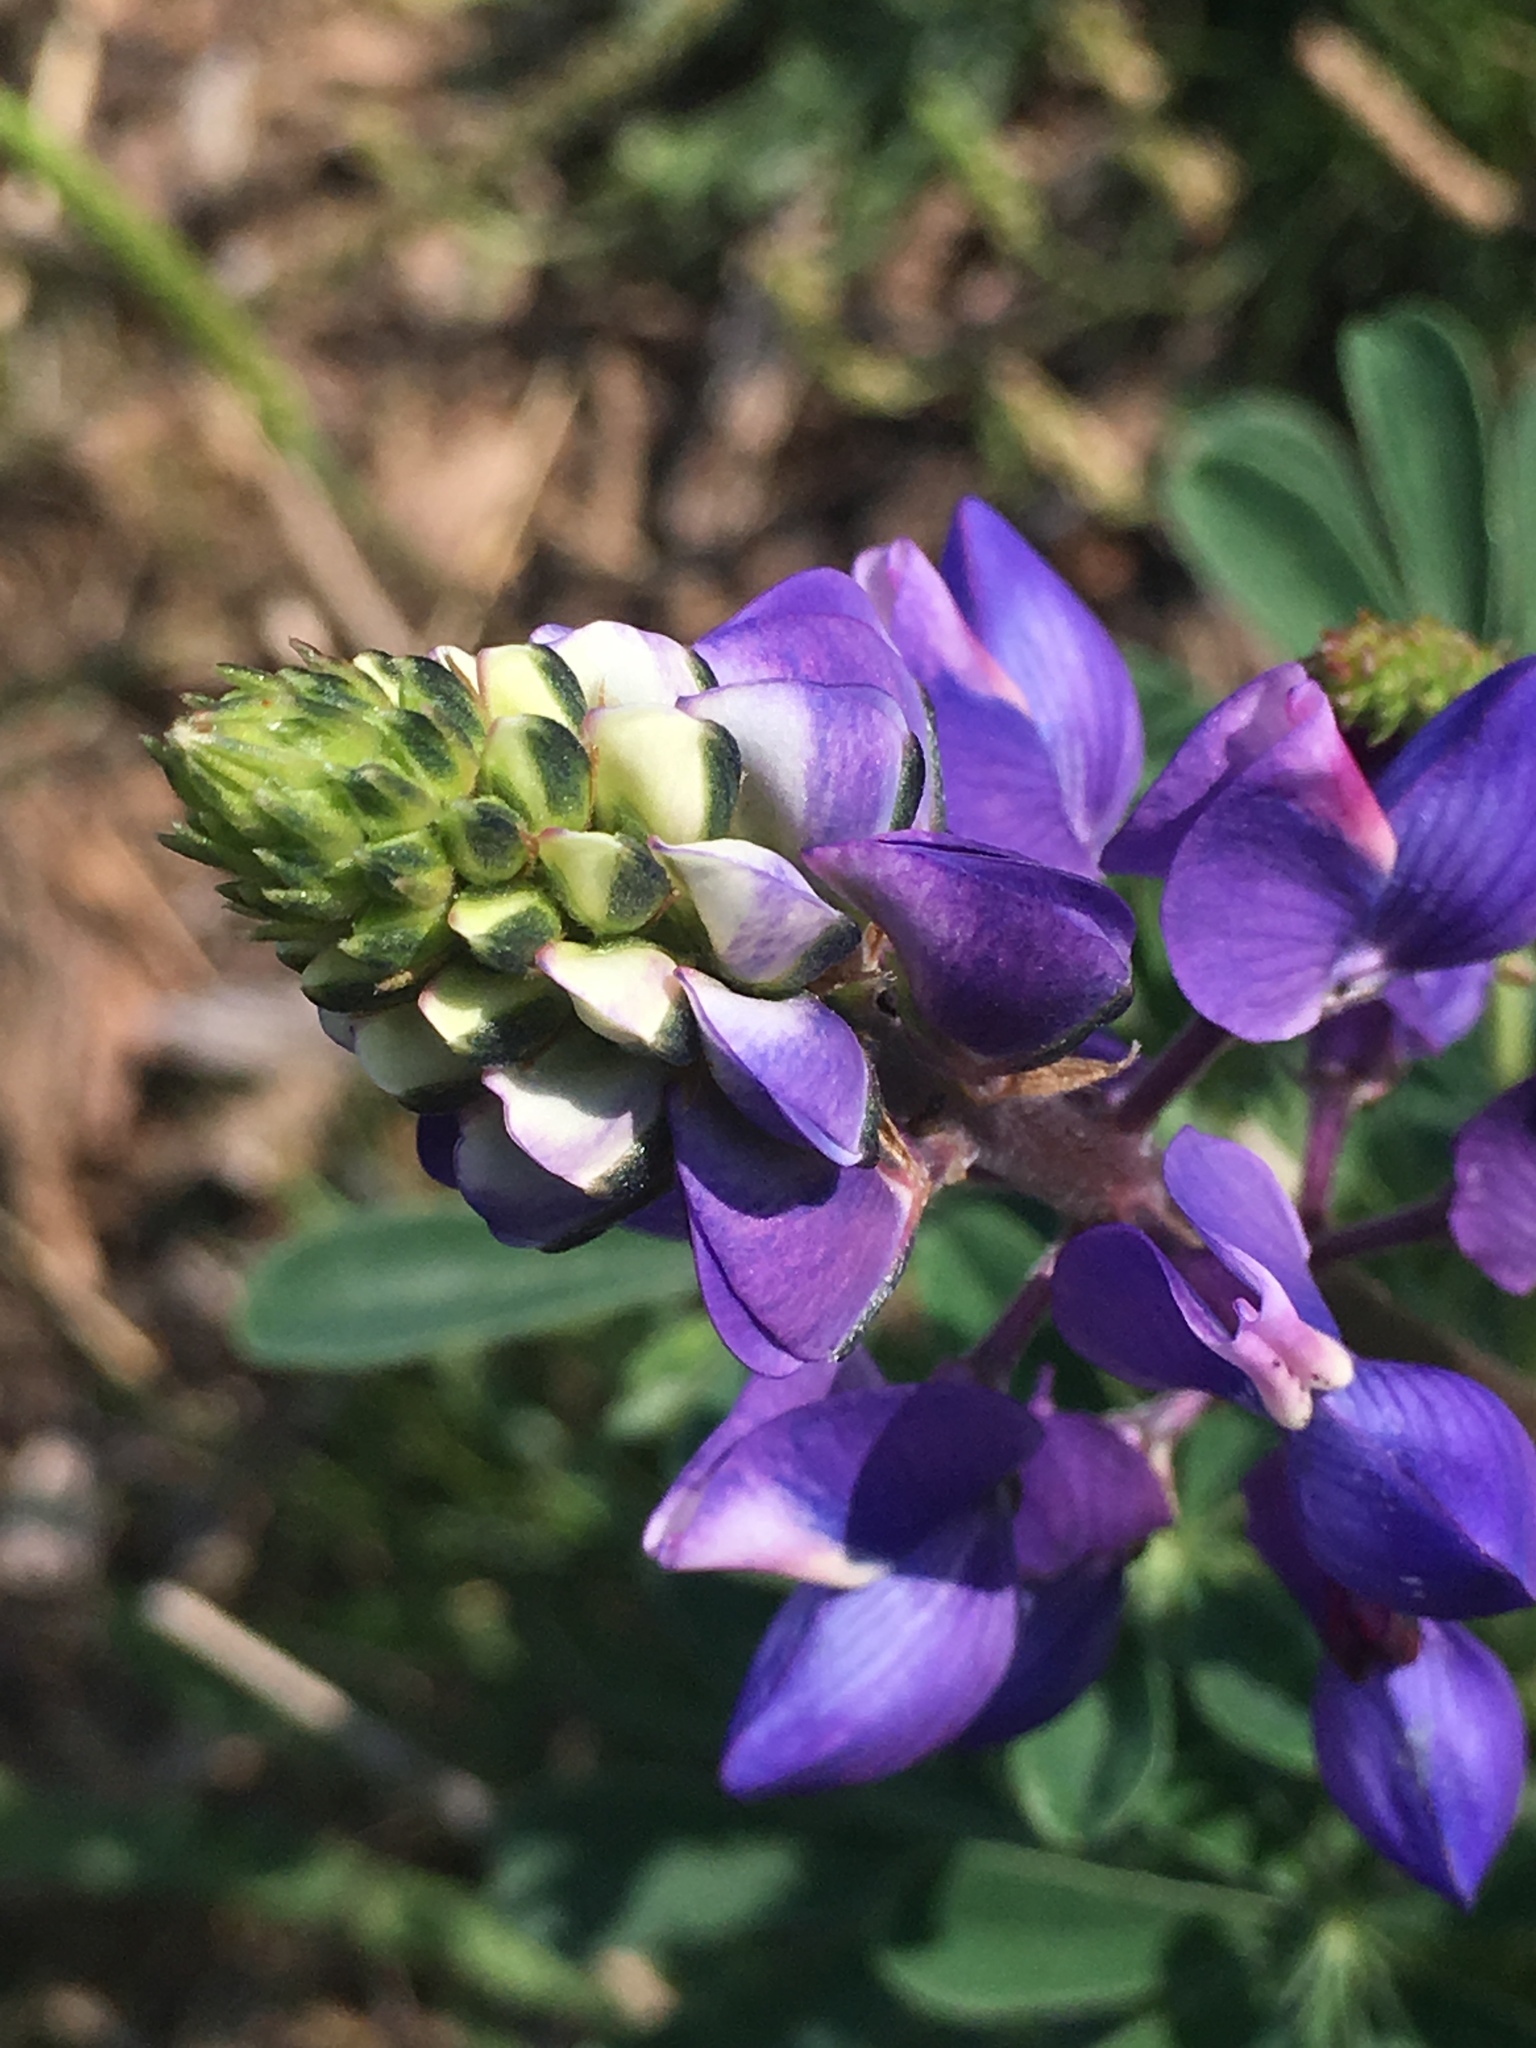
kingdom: Plantae
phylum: Tracheophyta
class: Magnoliopsida
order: Fabales
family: Fabaceae
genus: Lupinus
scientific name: Lupinus succulentus
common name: Arroyo lupine
